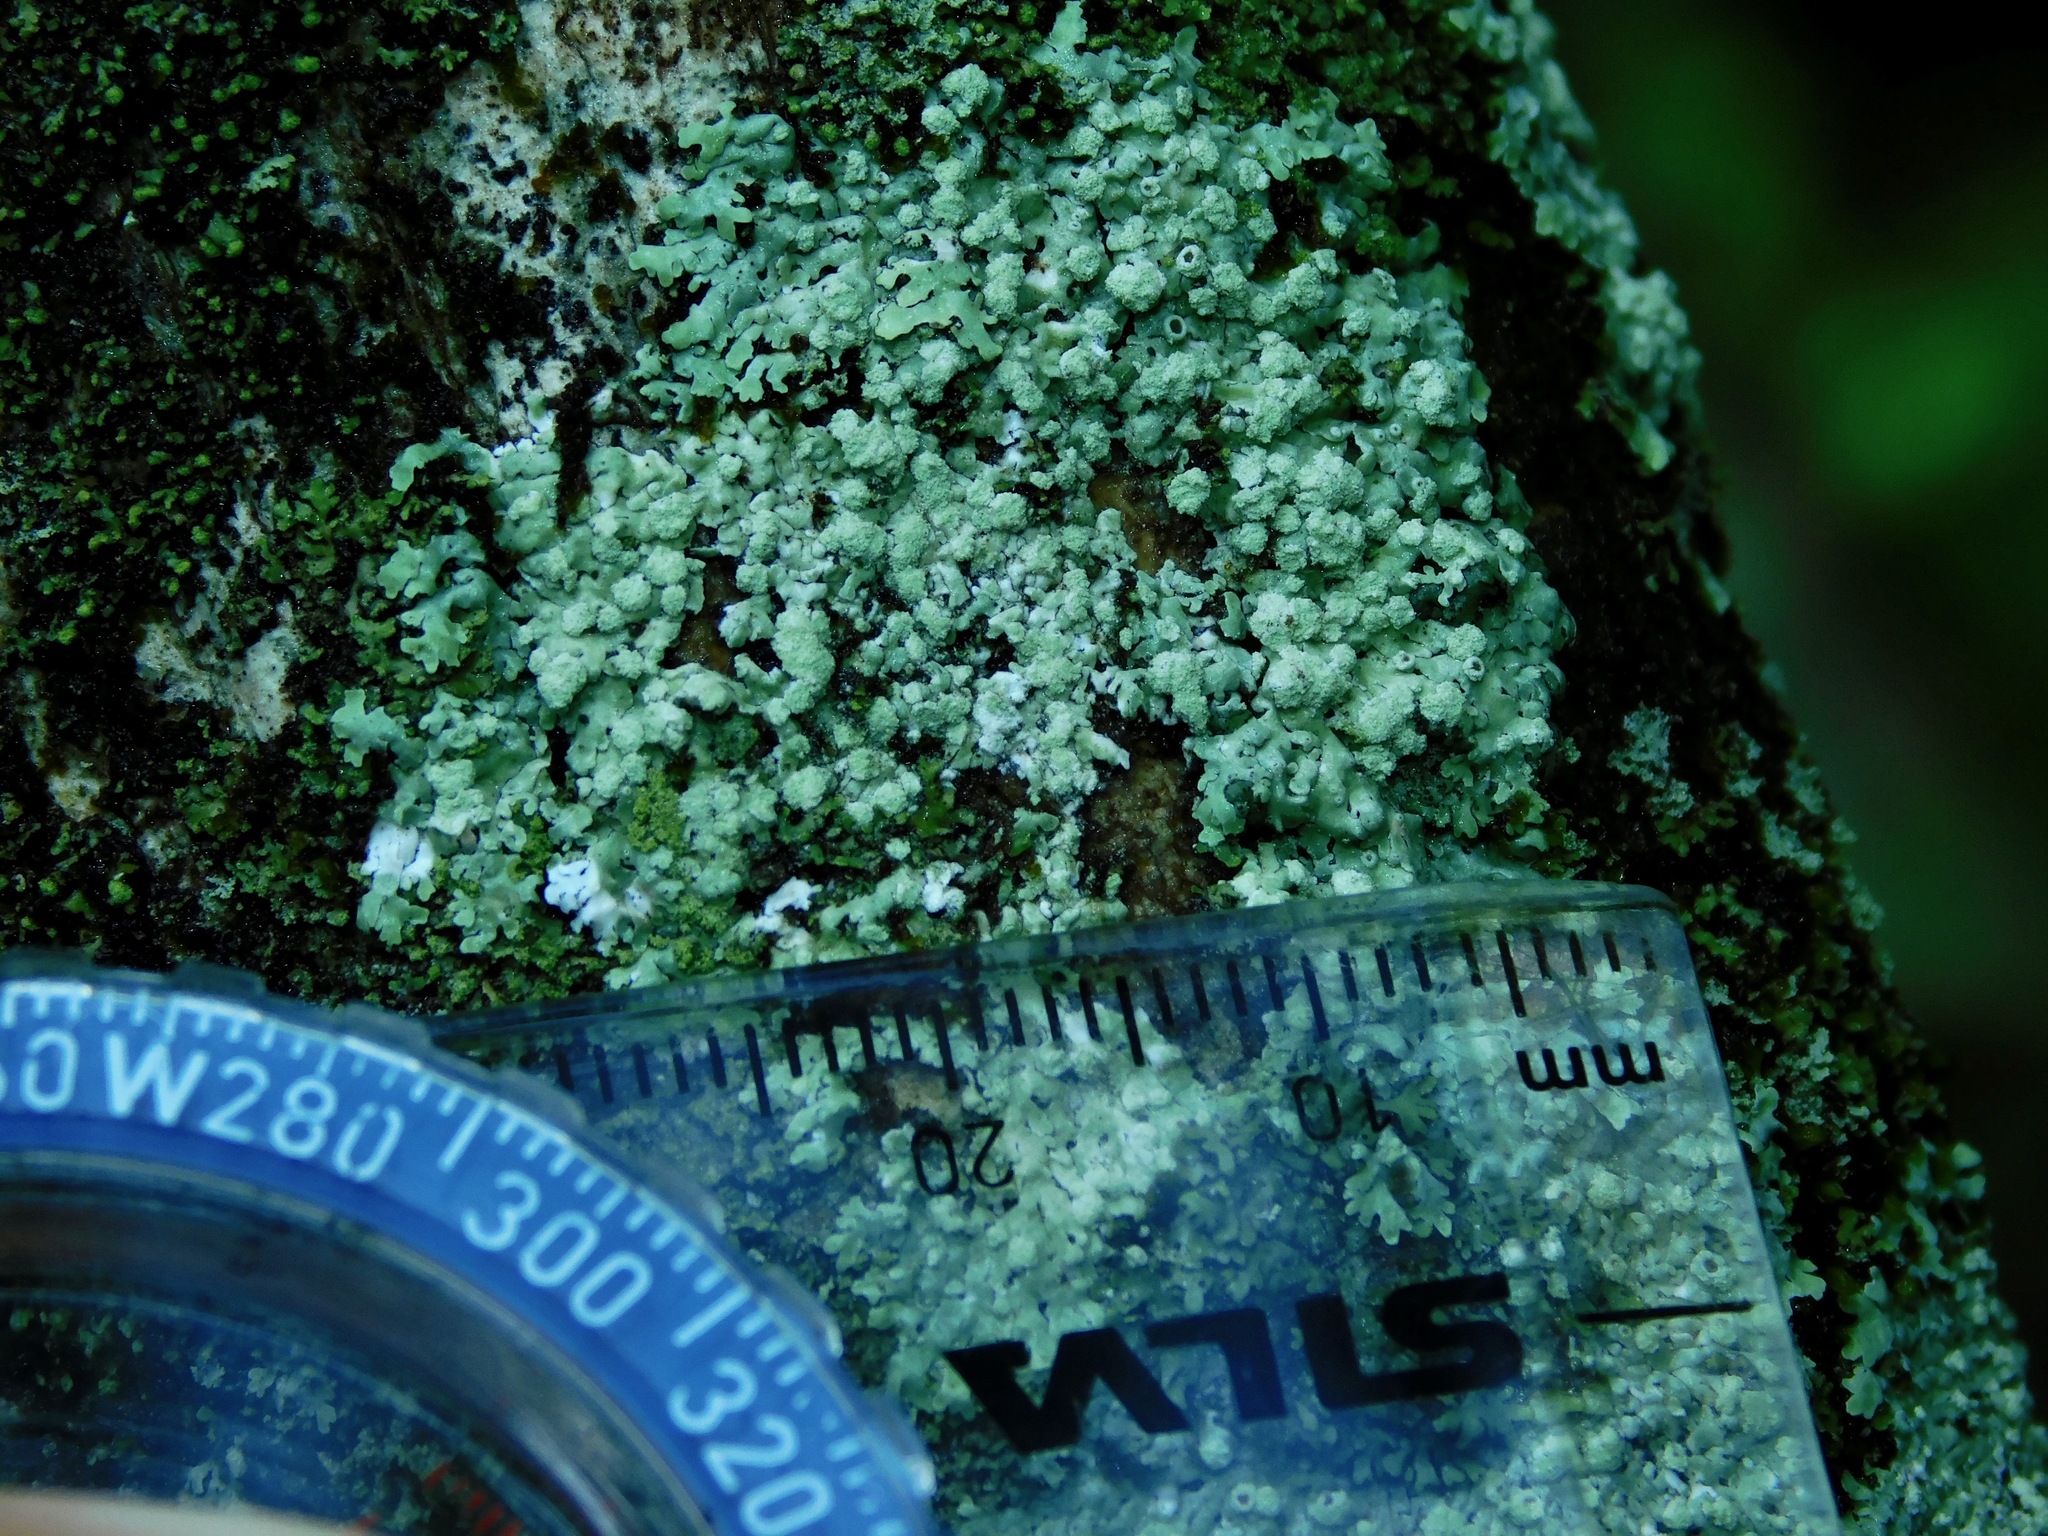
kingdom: Fungi
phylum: Ascomycota
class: Lecanoromycetes
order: Caliciales
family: Caliciaceae
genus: Pyxine
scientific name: Pyxine albovirens
